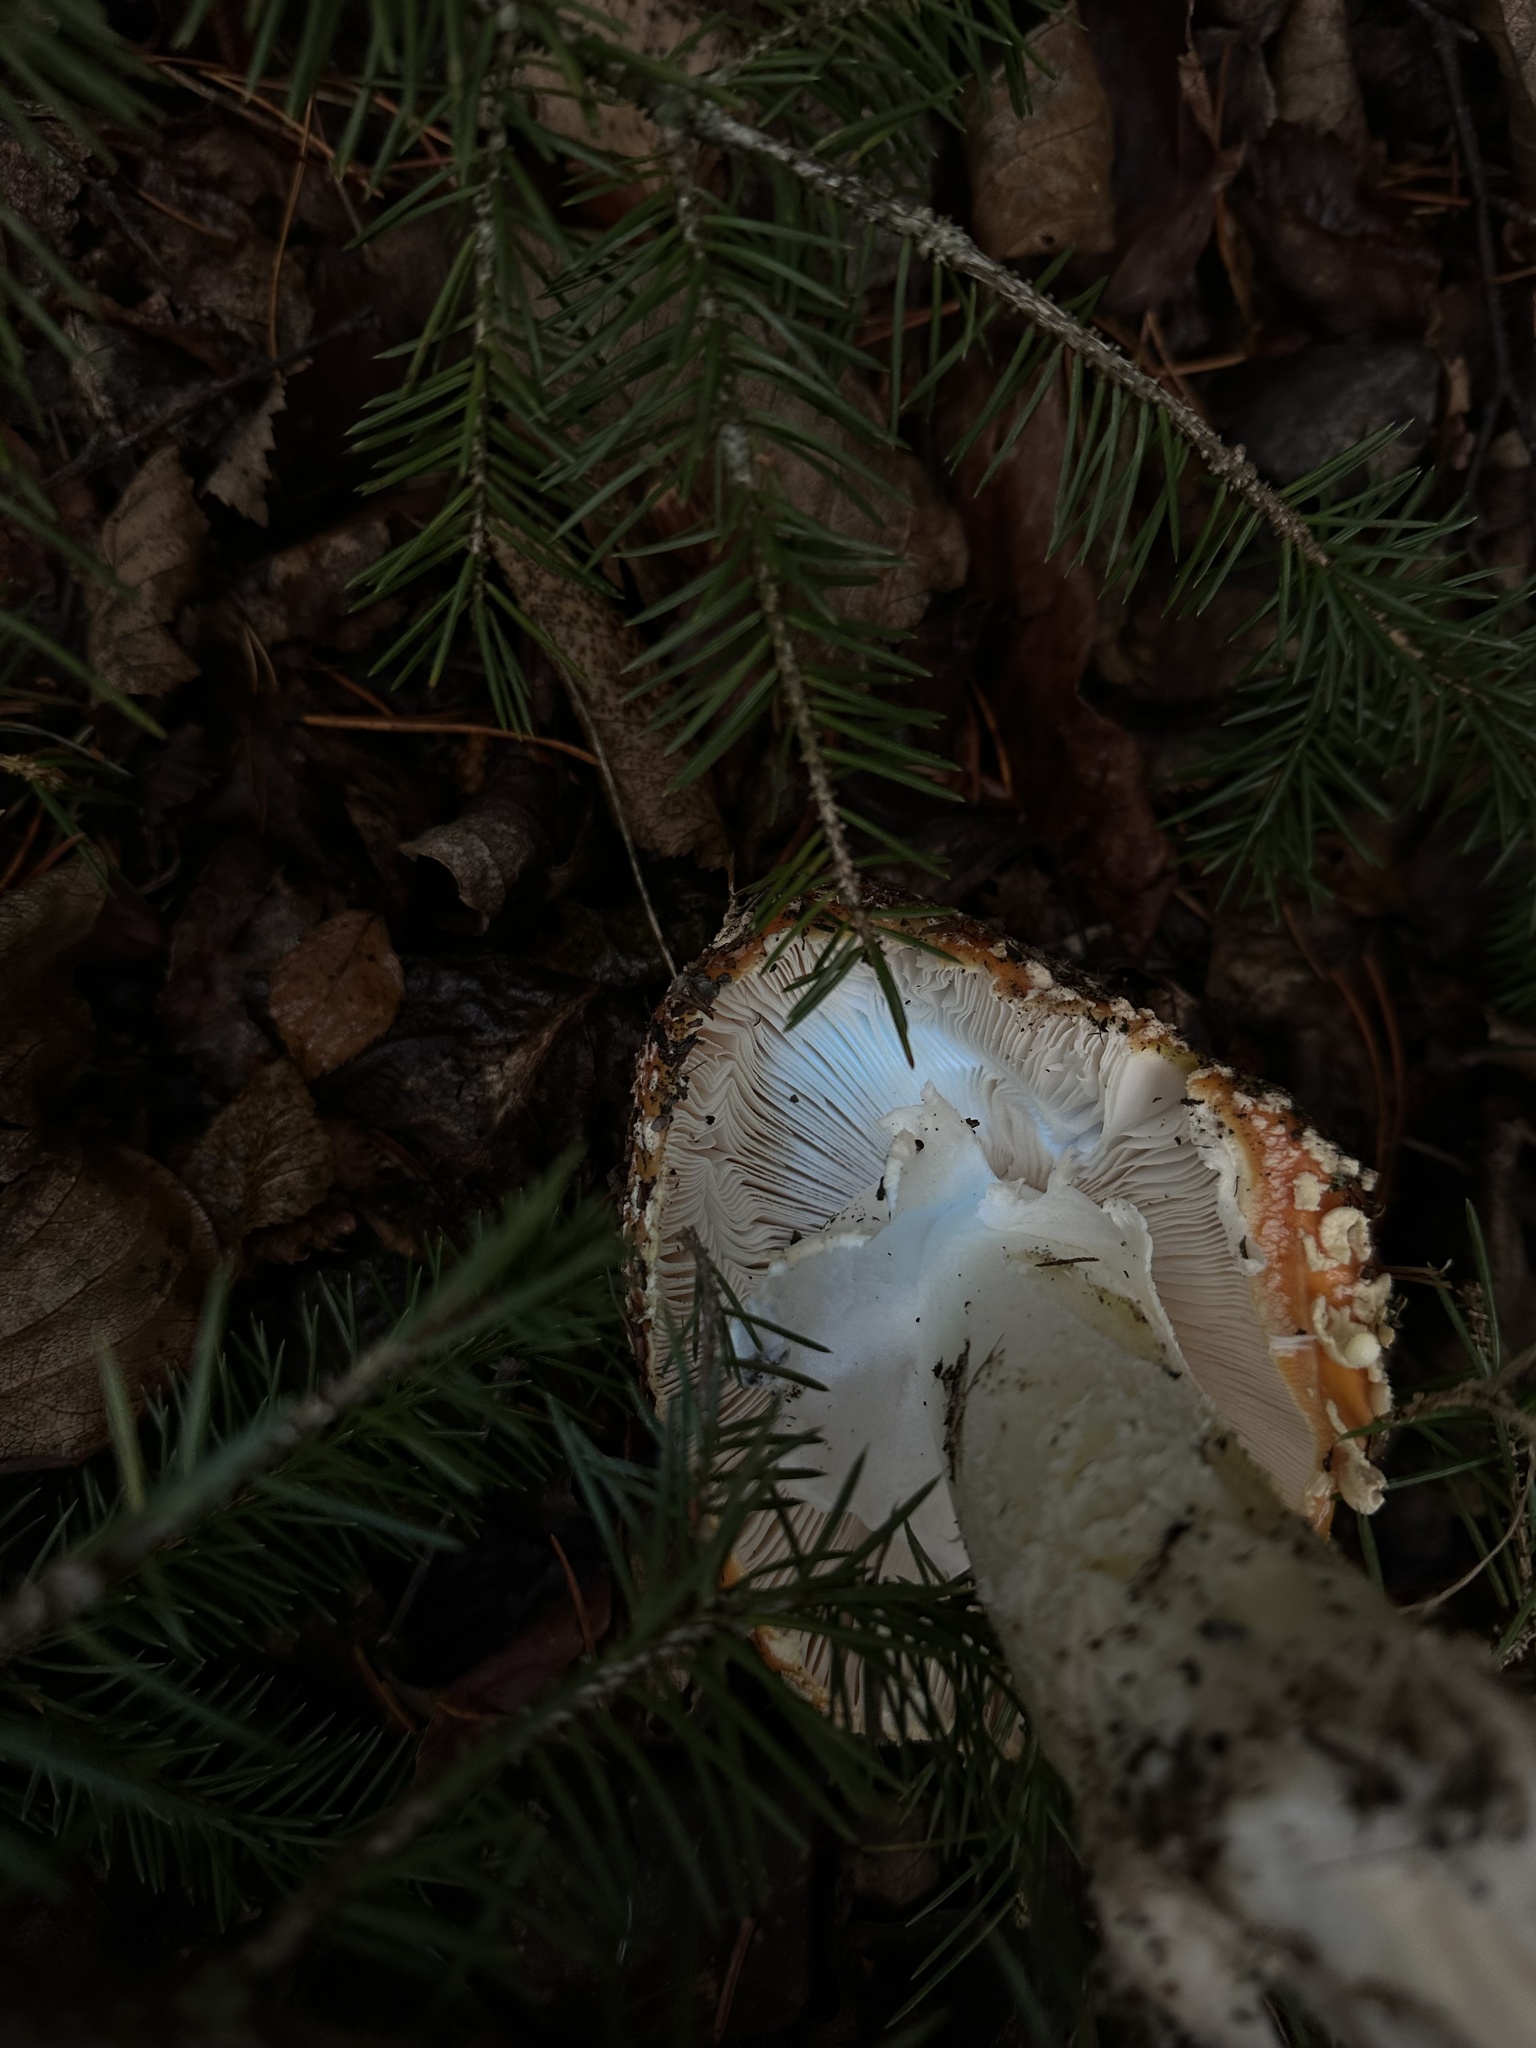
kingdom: Fungi
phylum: Basidiomycota
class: Agaricomycetes
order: Agaricales
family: Amanitaceae
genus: Amanita
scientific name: Amanita muscaria
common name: Fly agaric
